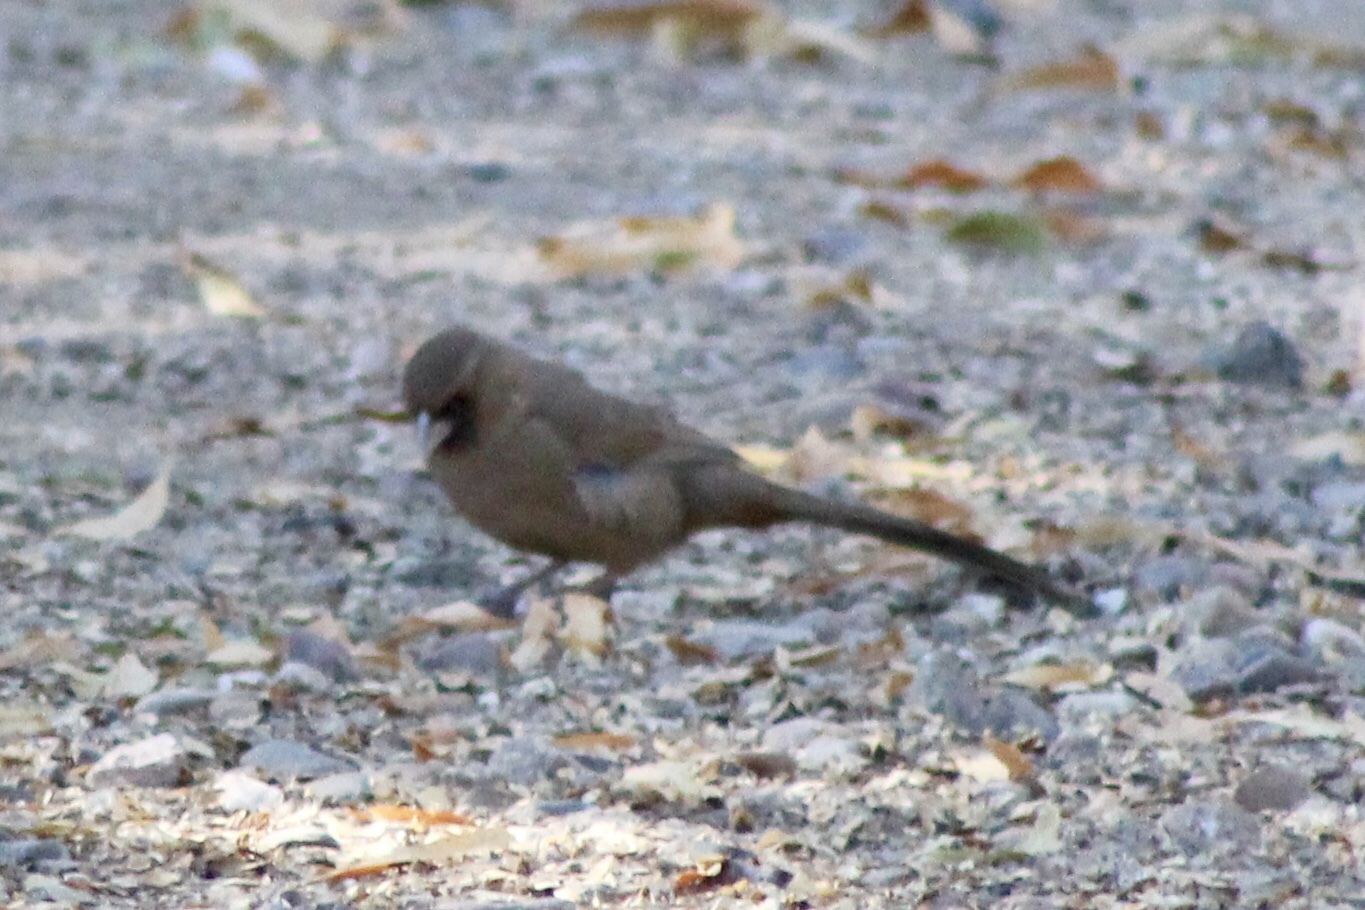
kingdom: Animalia
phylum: Chordata
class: Aves
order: Passeriformes
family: Passerellidae
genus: Melozone
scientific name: Melozone aberti
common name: Abert's towhee
